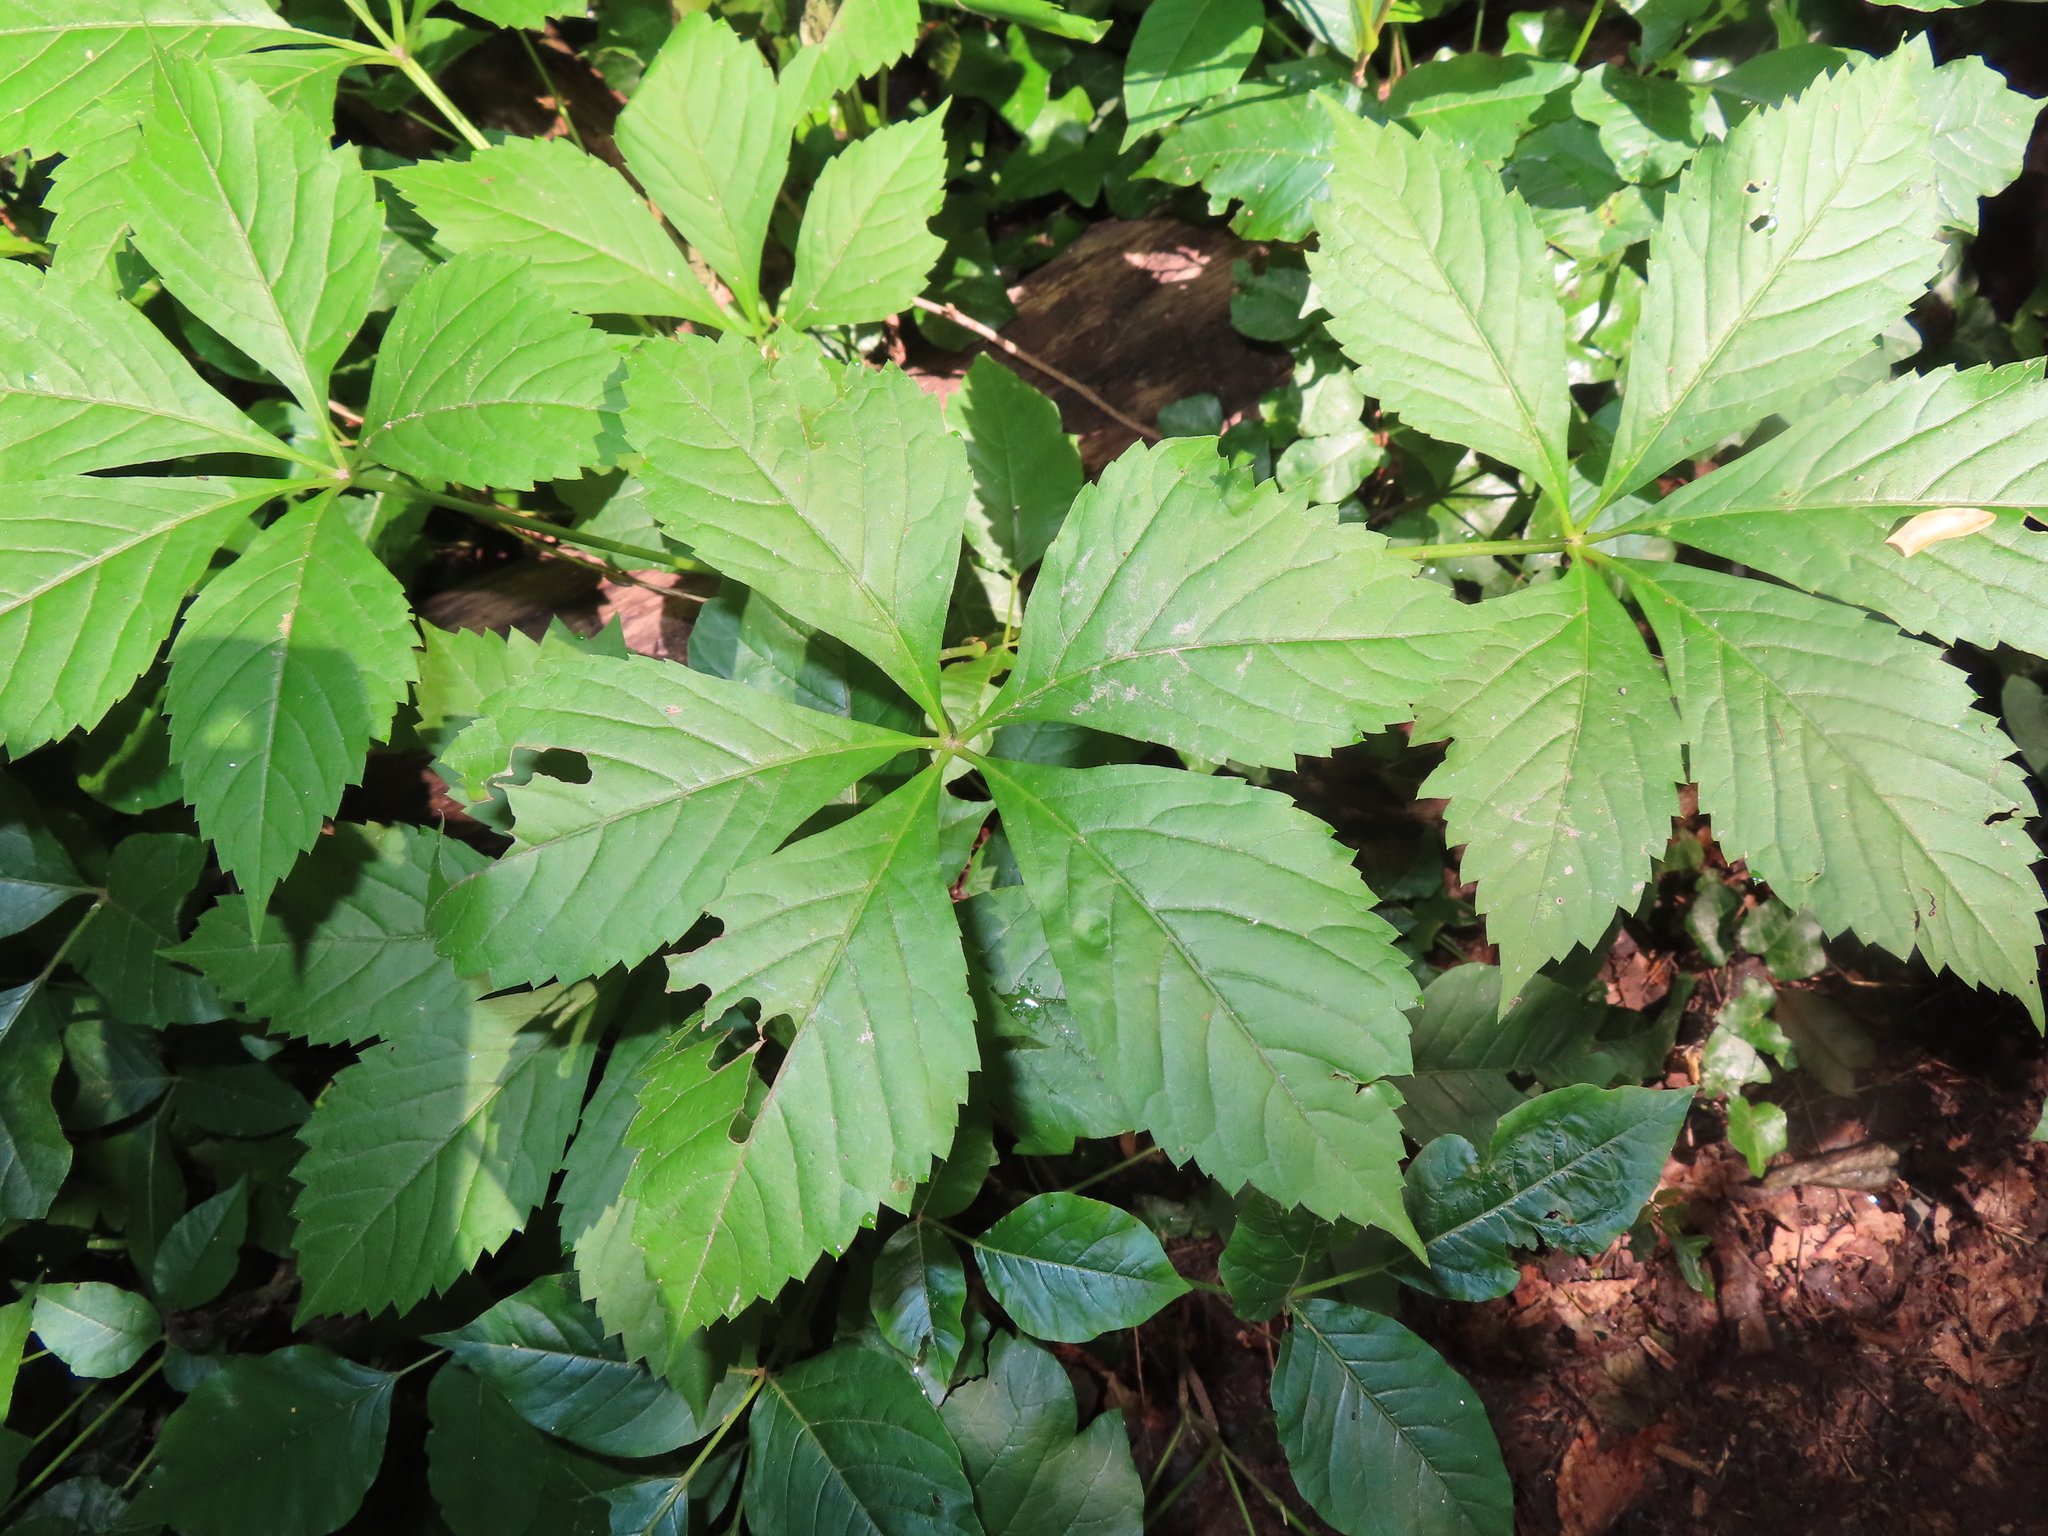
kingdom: Plantae
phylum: Tracheophyta
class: Magnoliopsida
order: Vitales
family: Vitaceae
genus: Parthenocissus
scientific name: Parthenocissus quinquefolia
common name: Virginia-creeper
